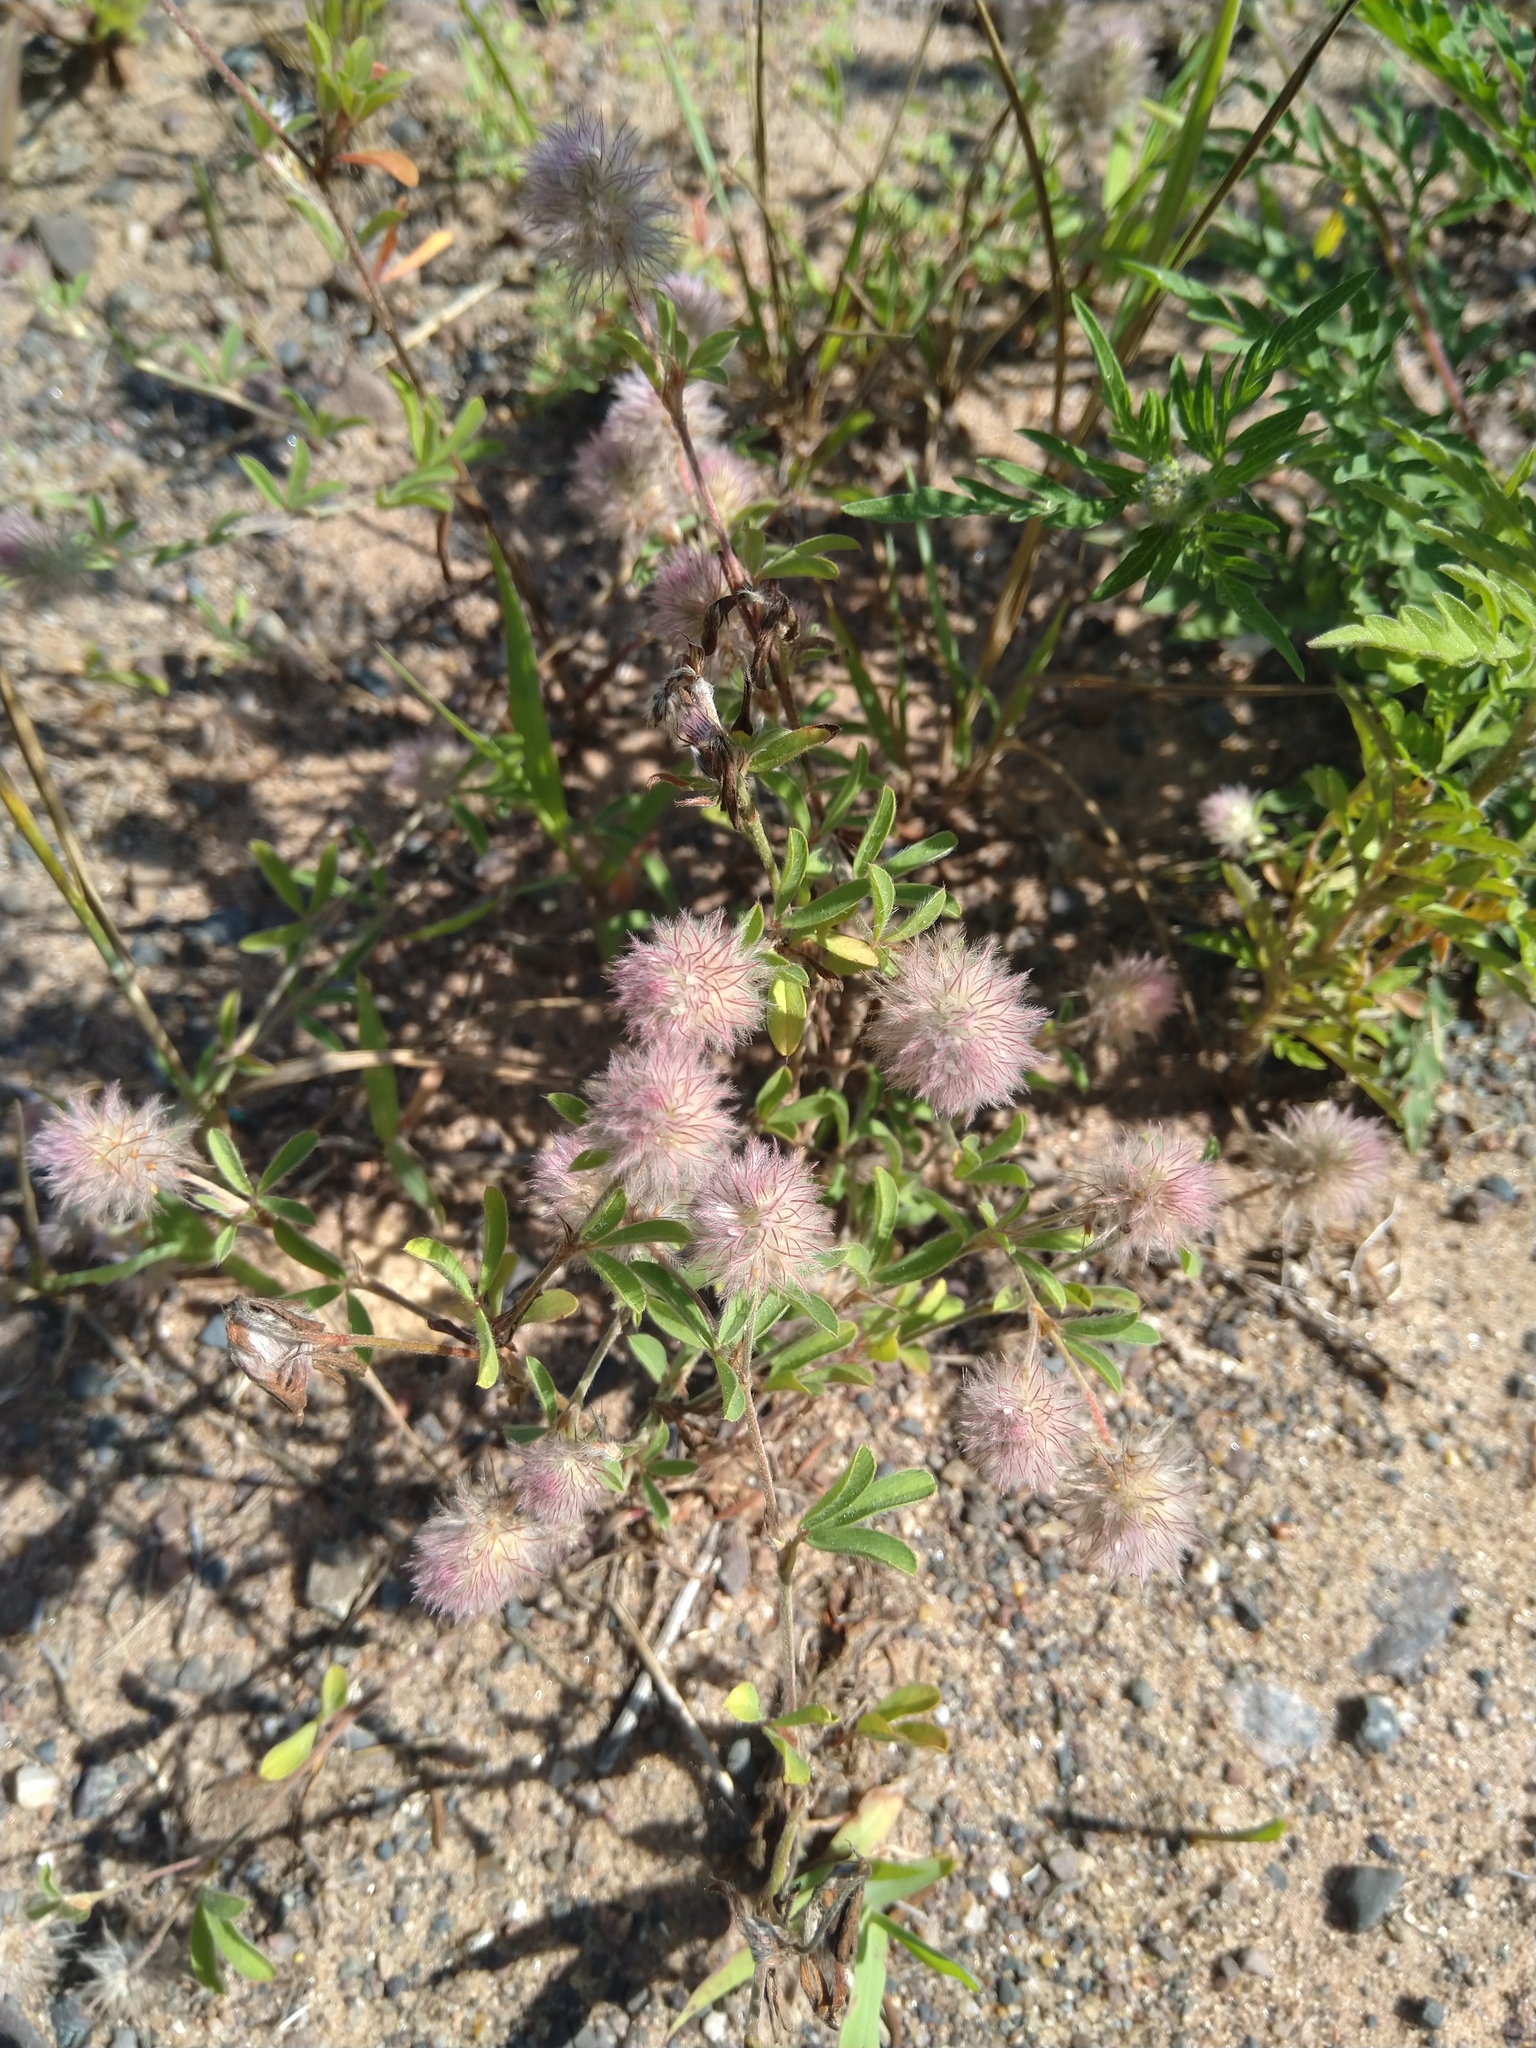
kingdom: Plantae
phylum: Tracheophyta
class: Magnoliopsida
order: Fabales
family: Fabaceae
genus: Trifolium
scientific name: Trifolium arvense
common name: Hare's-foot clover
